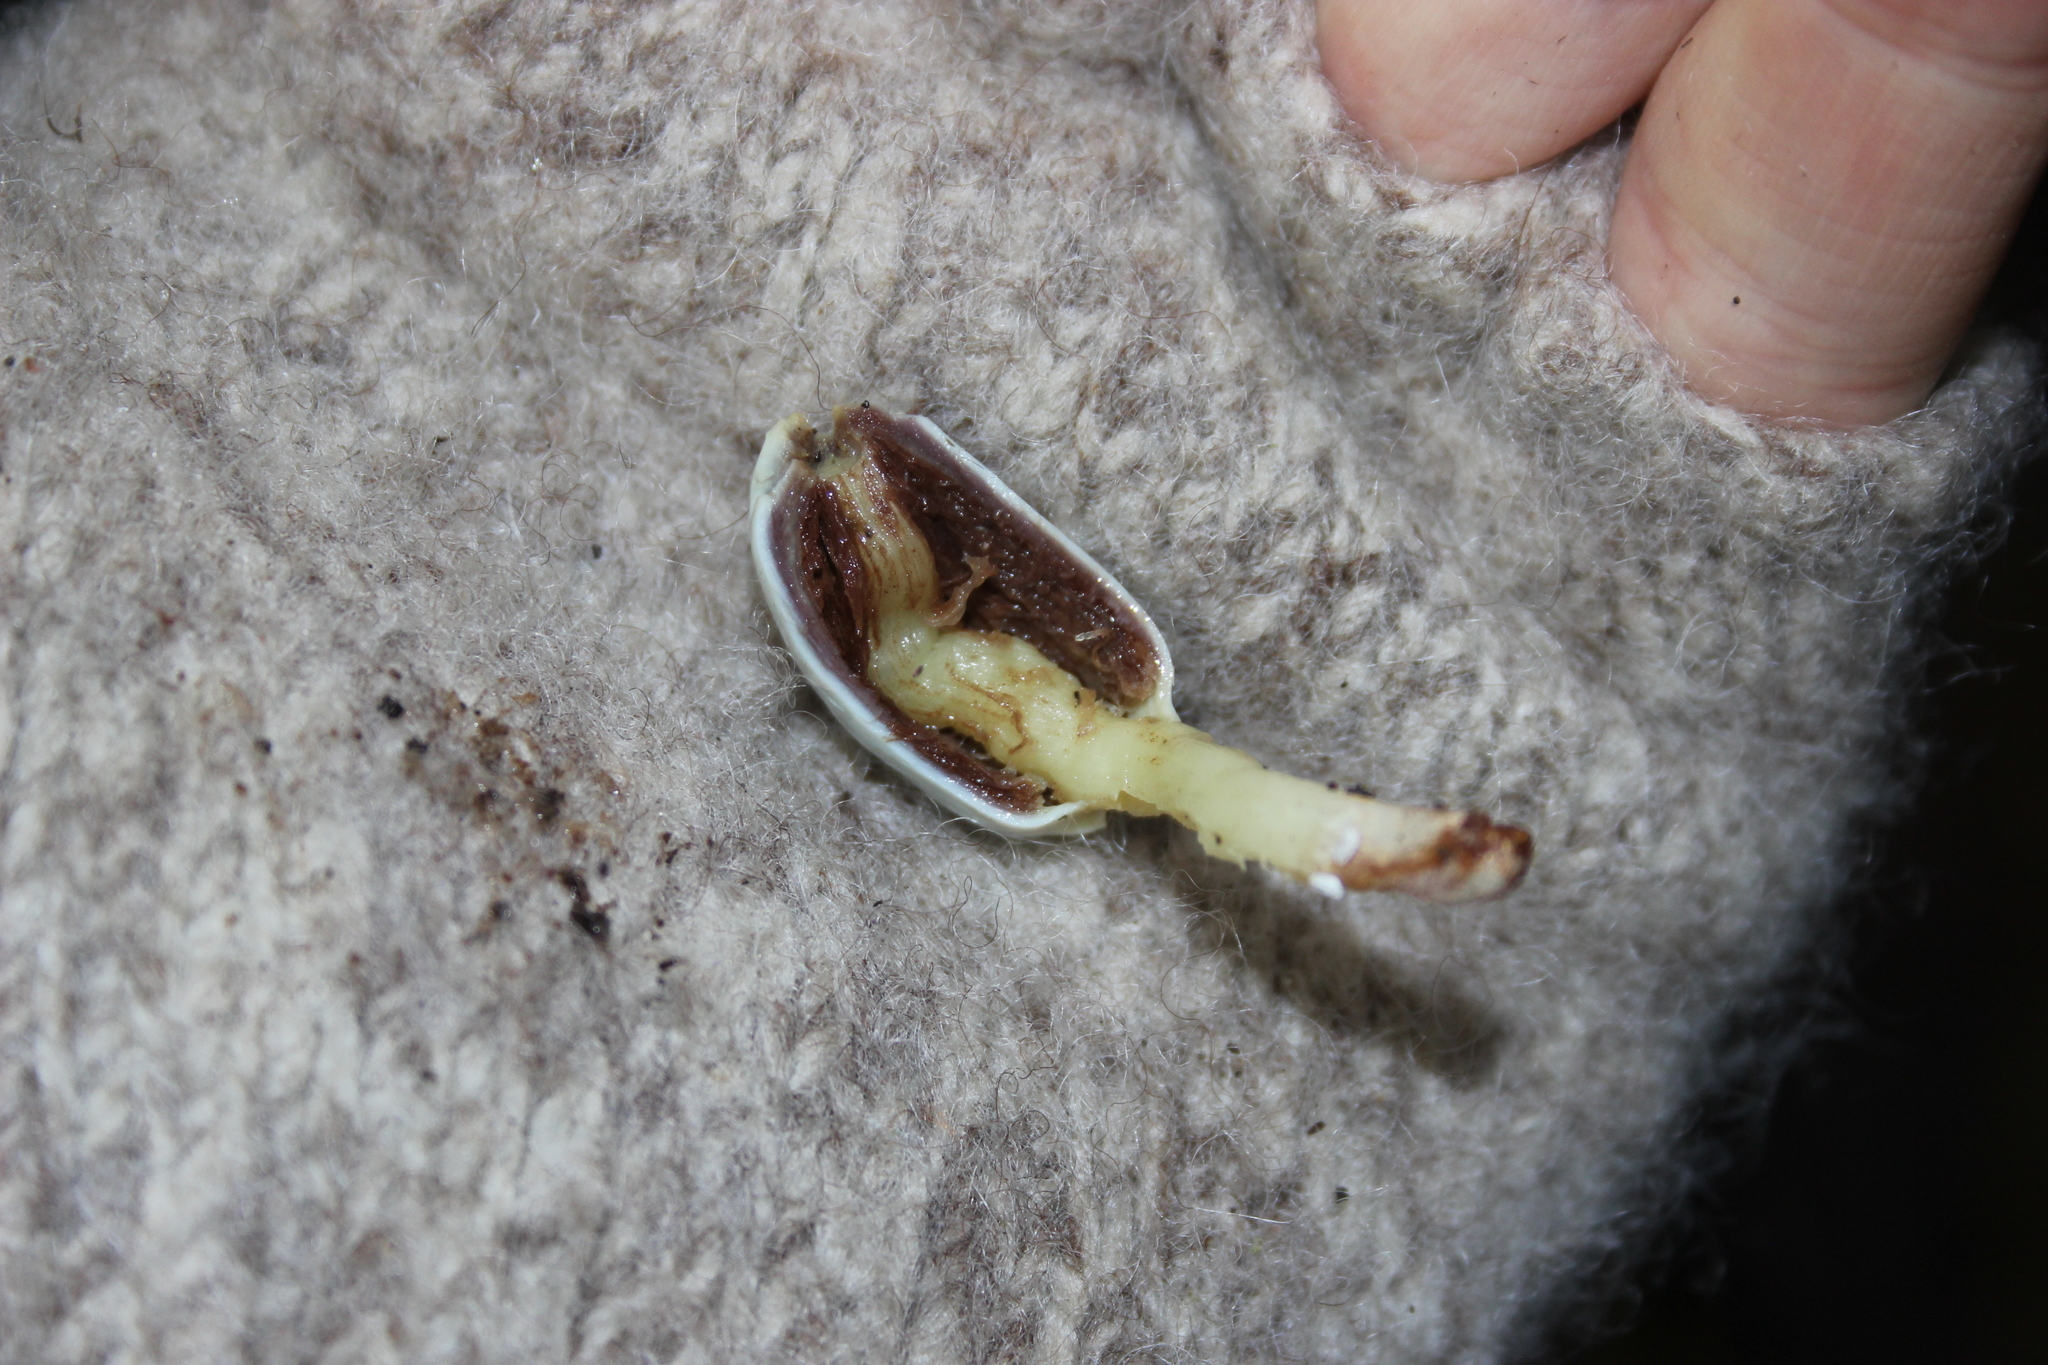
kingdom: Fungi
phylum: Basidiomycota
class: Agaricomycetes
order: Agaricales
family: Agaricaceae
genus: Clavogaster
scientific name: Clavogaster virescens
